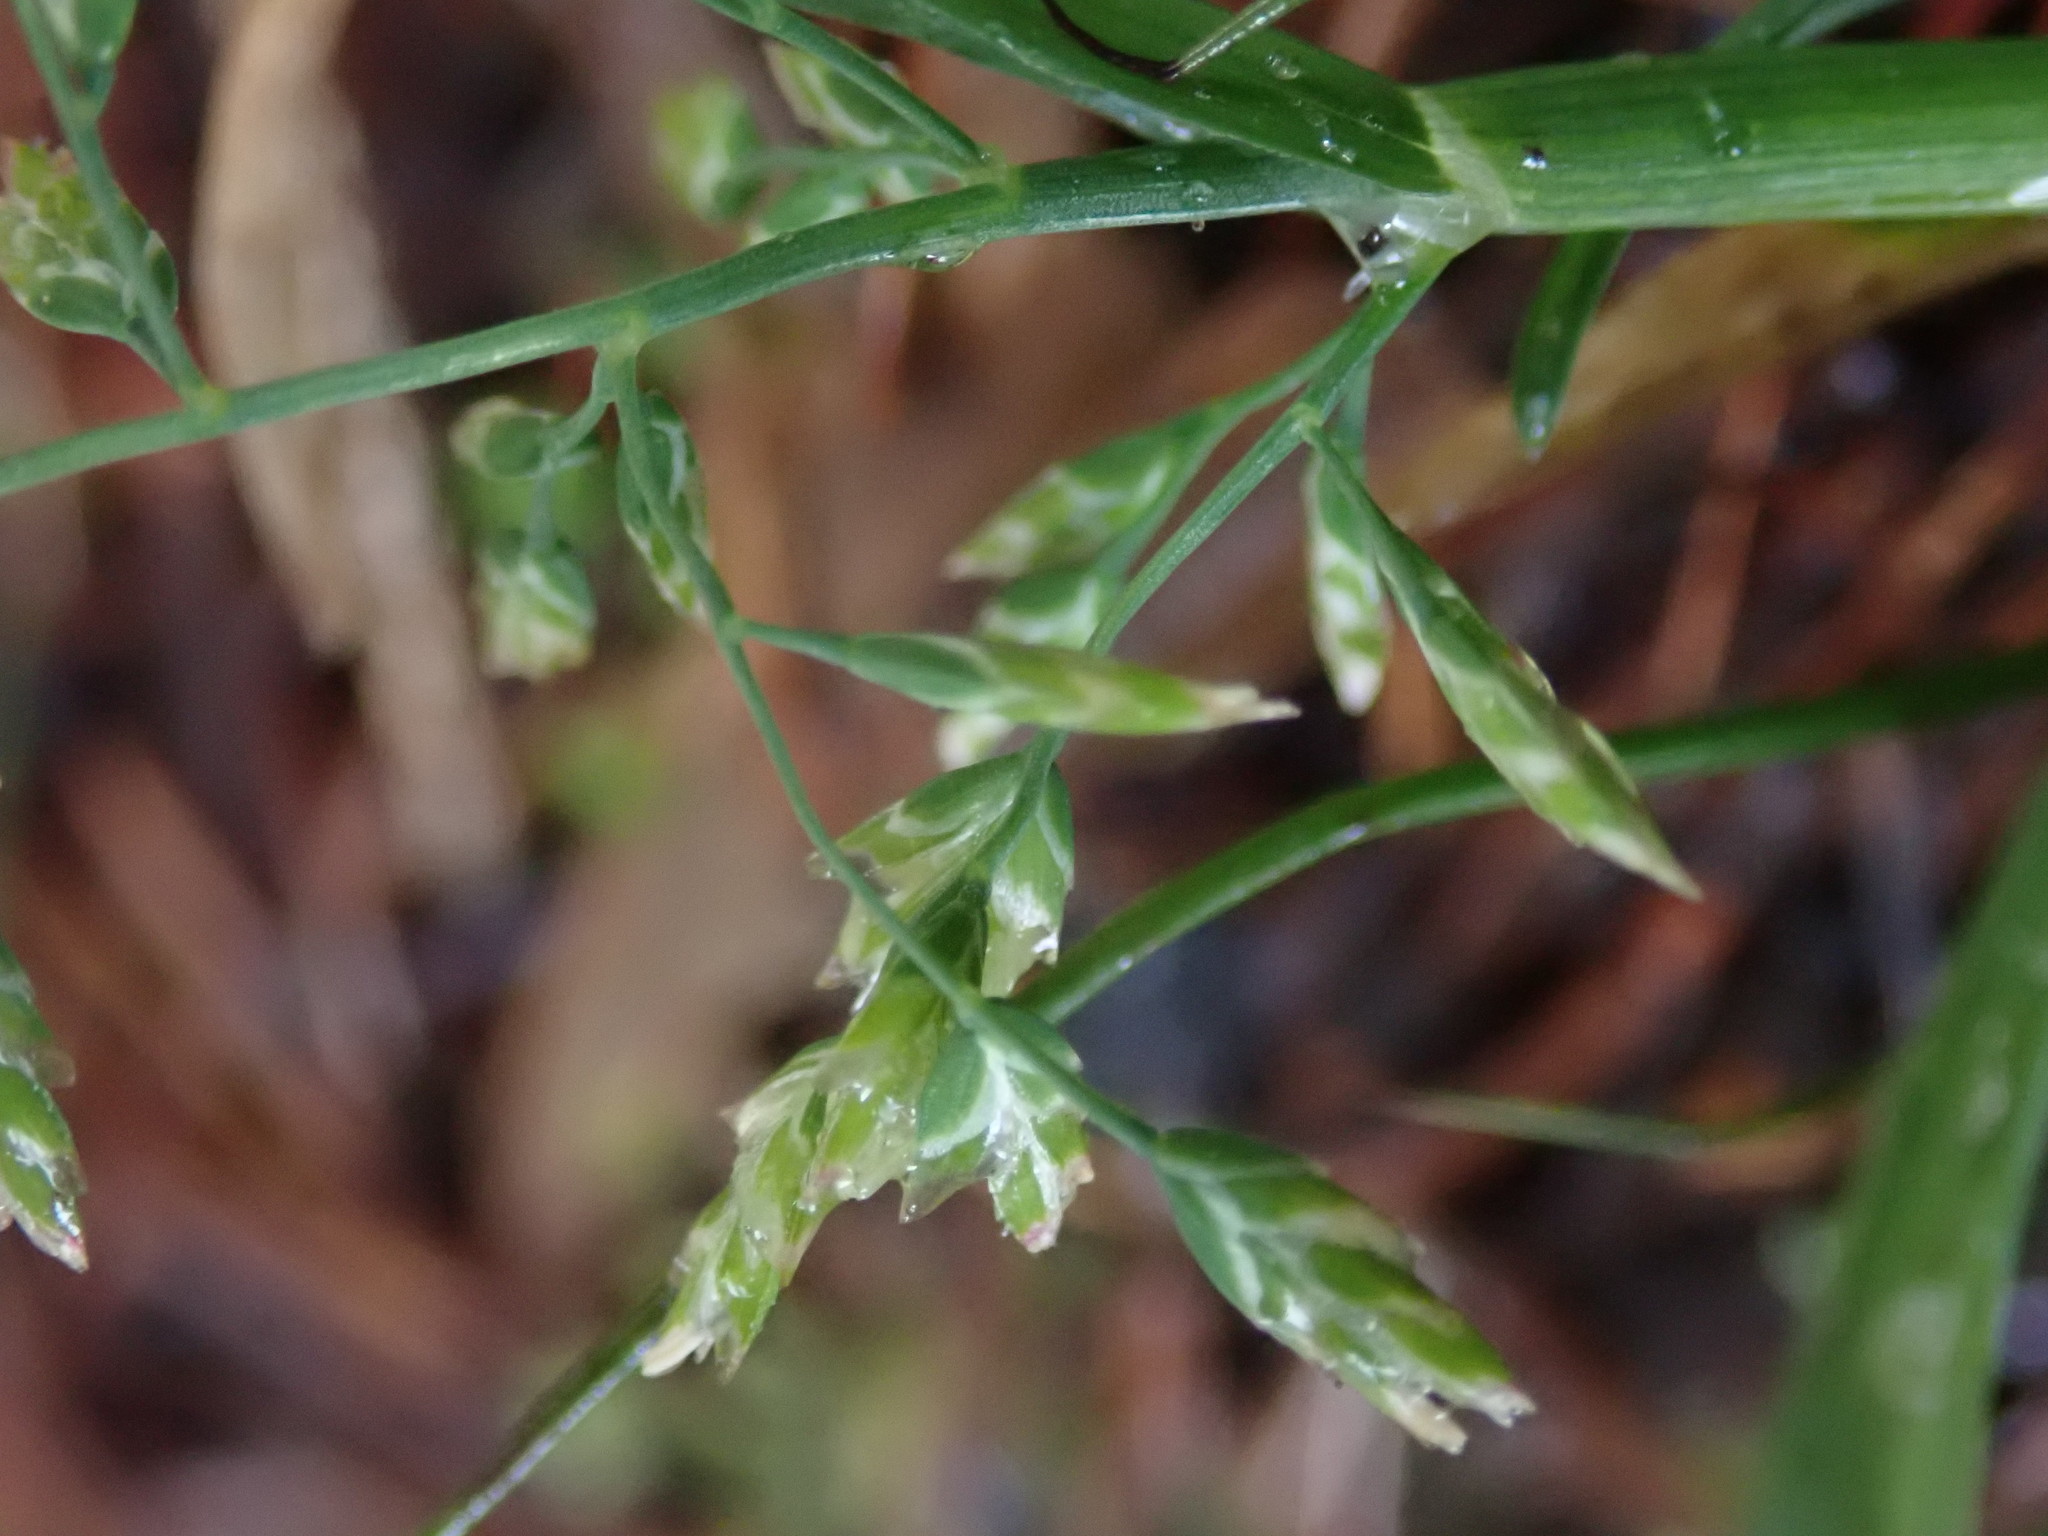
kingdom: Plantae
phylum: Tracheophyta
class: Liliopsida
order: Poales
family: Poaceae
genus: Poa
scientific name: Poa annua
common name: Annual bluegrass
